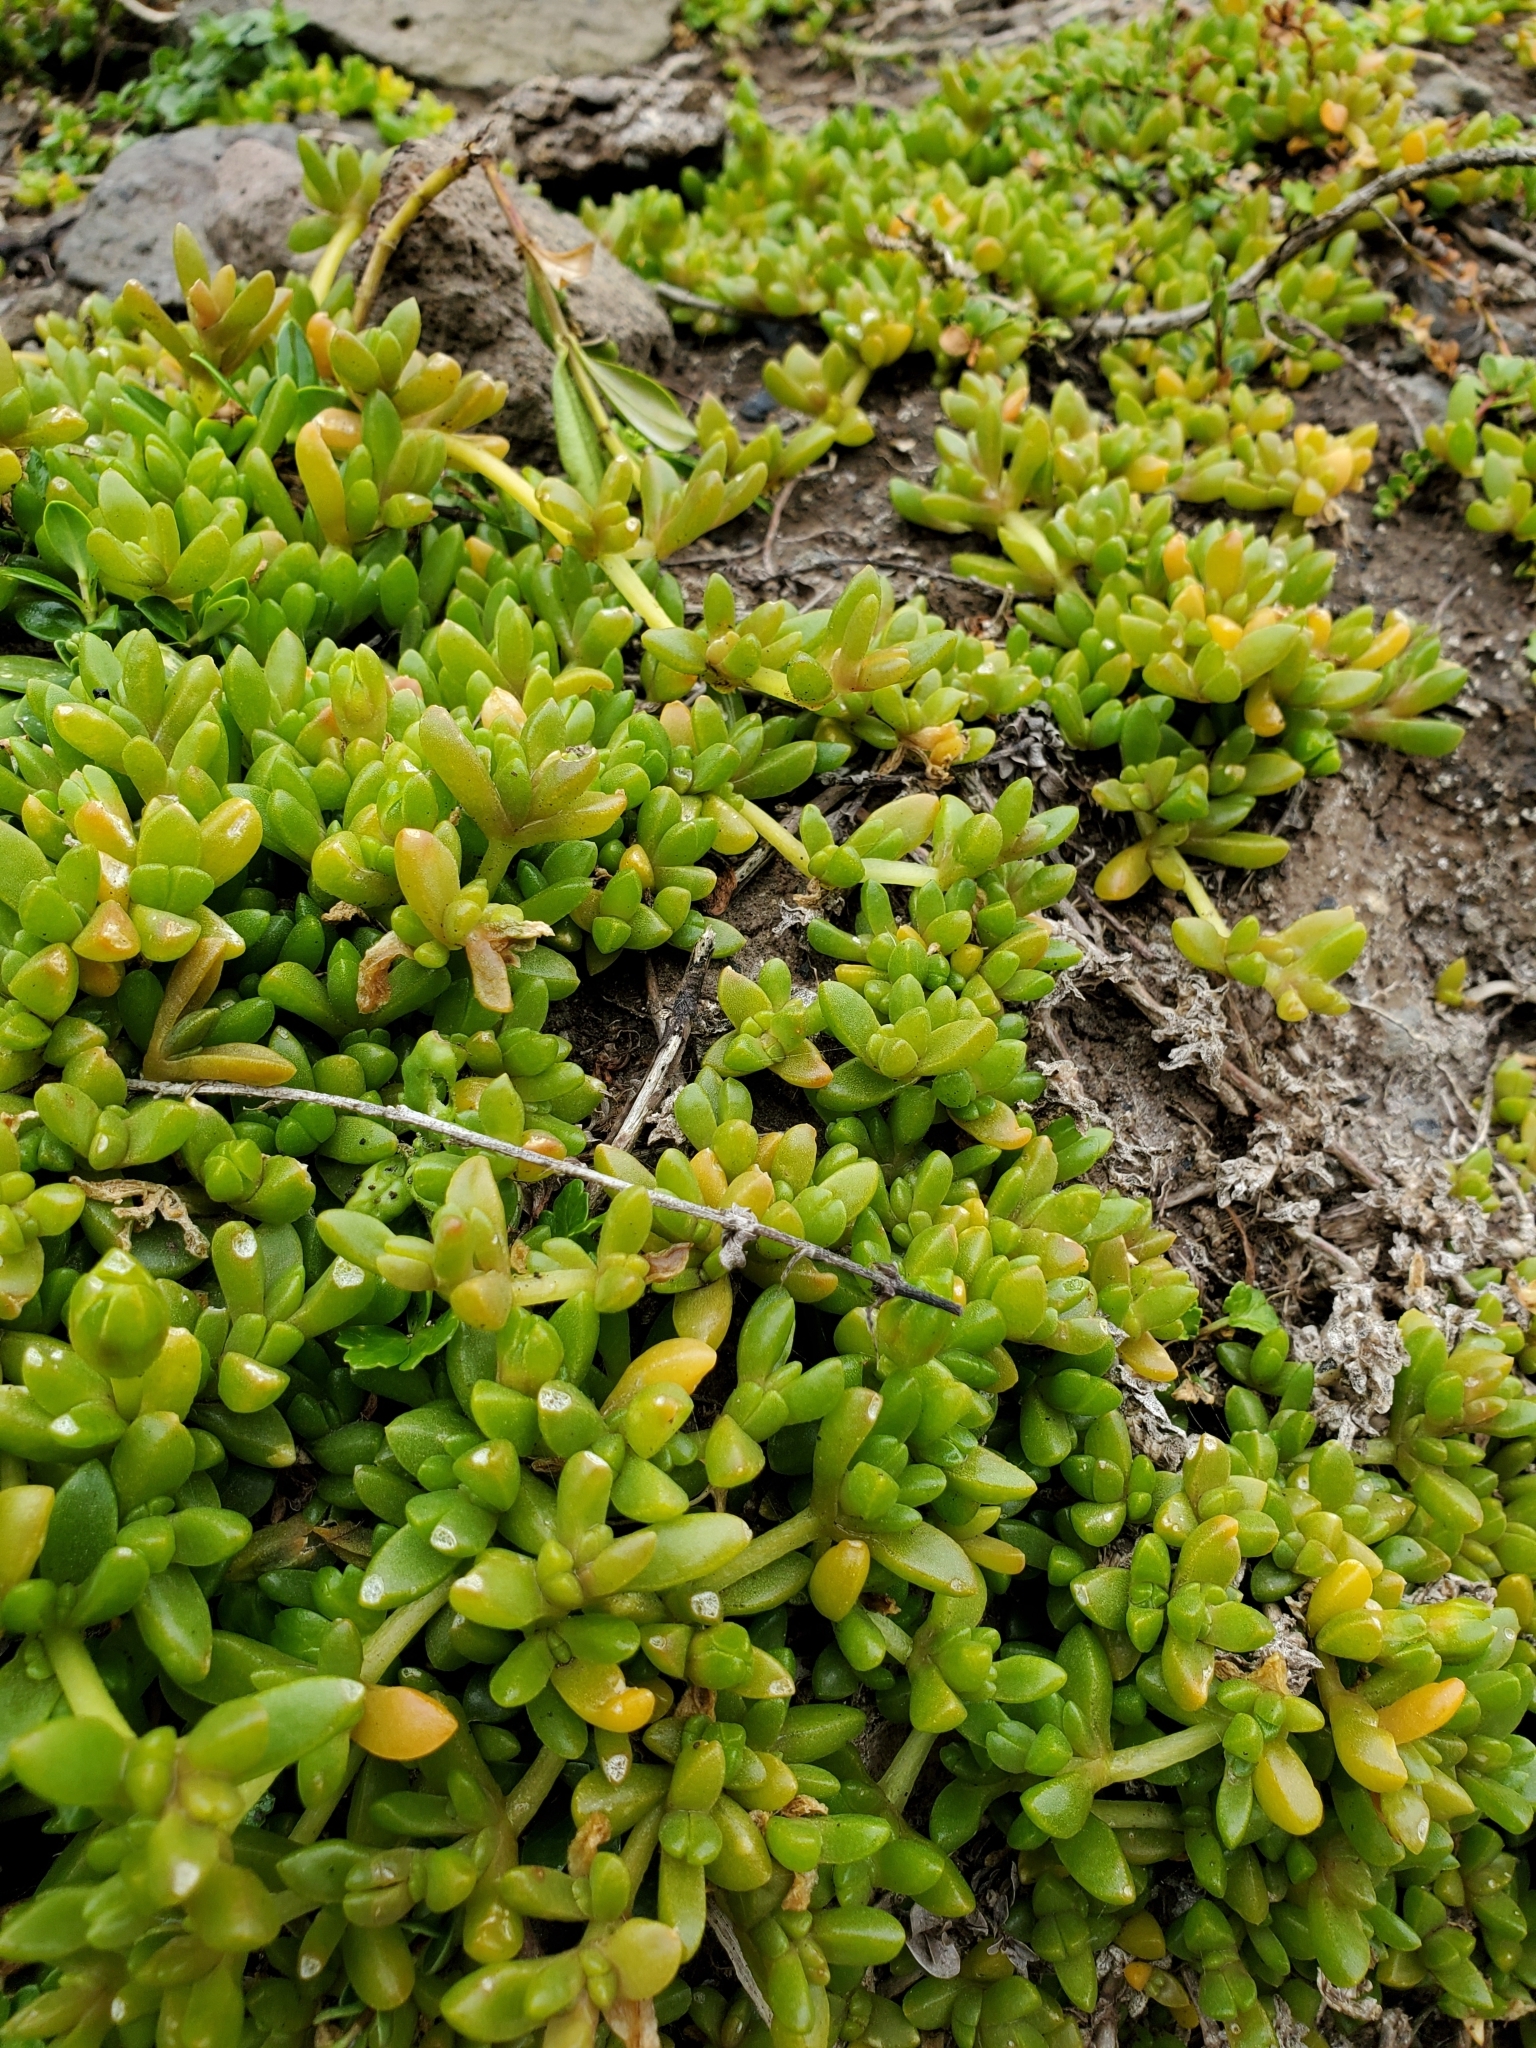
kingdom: Plantae
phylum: Tracheophyta
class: Magnoliopsida
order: Caryophyllales
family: Aizoaceae
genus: Disphyma
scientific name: Disphyma australe
